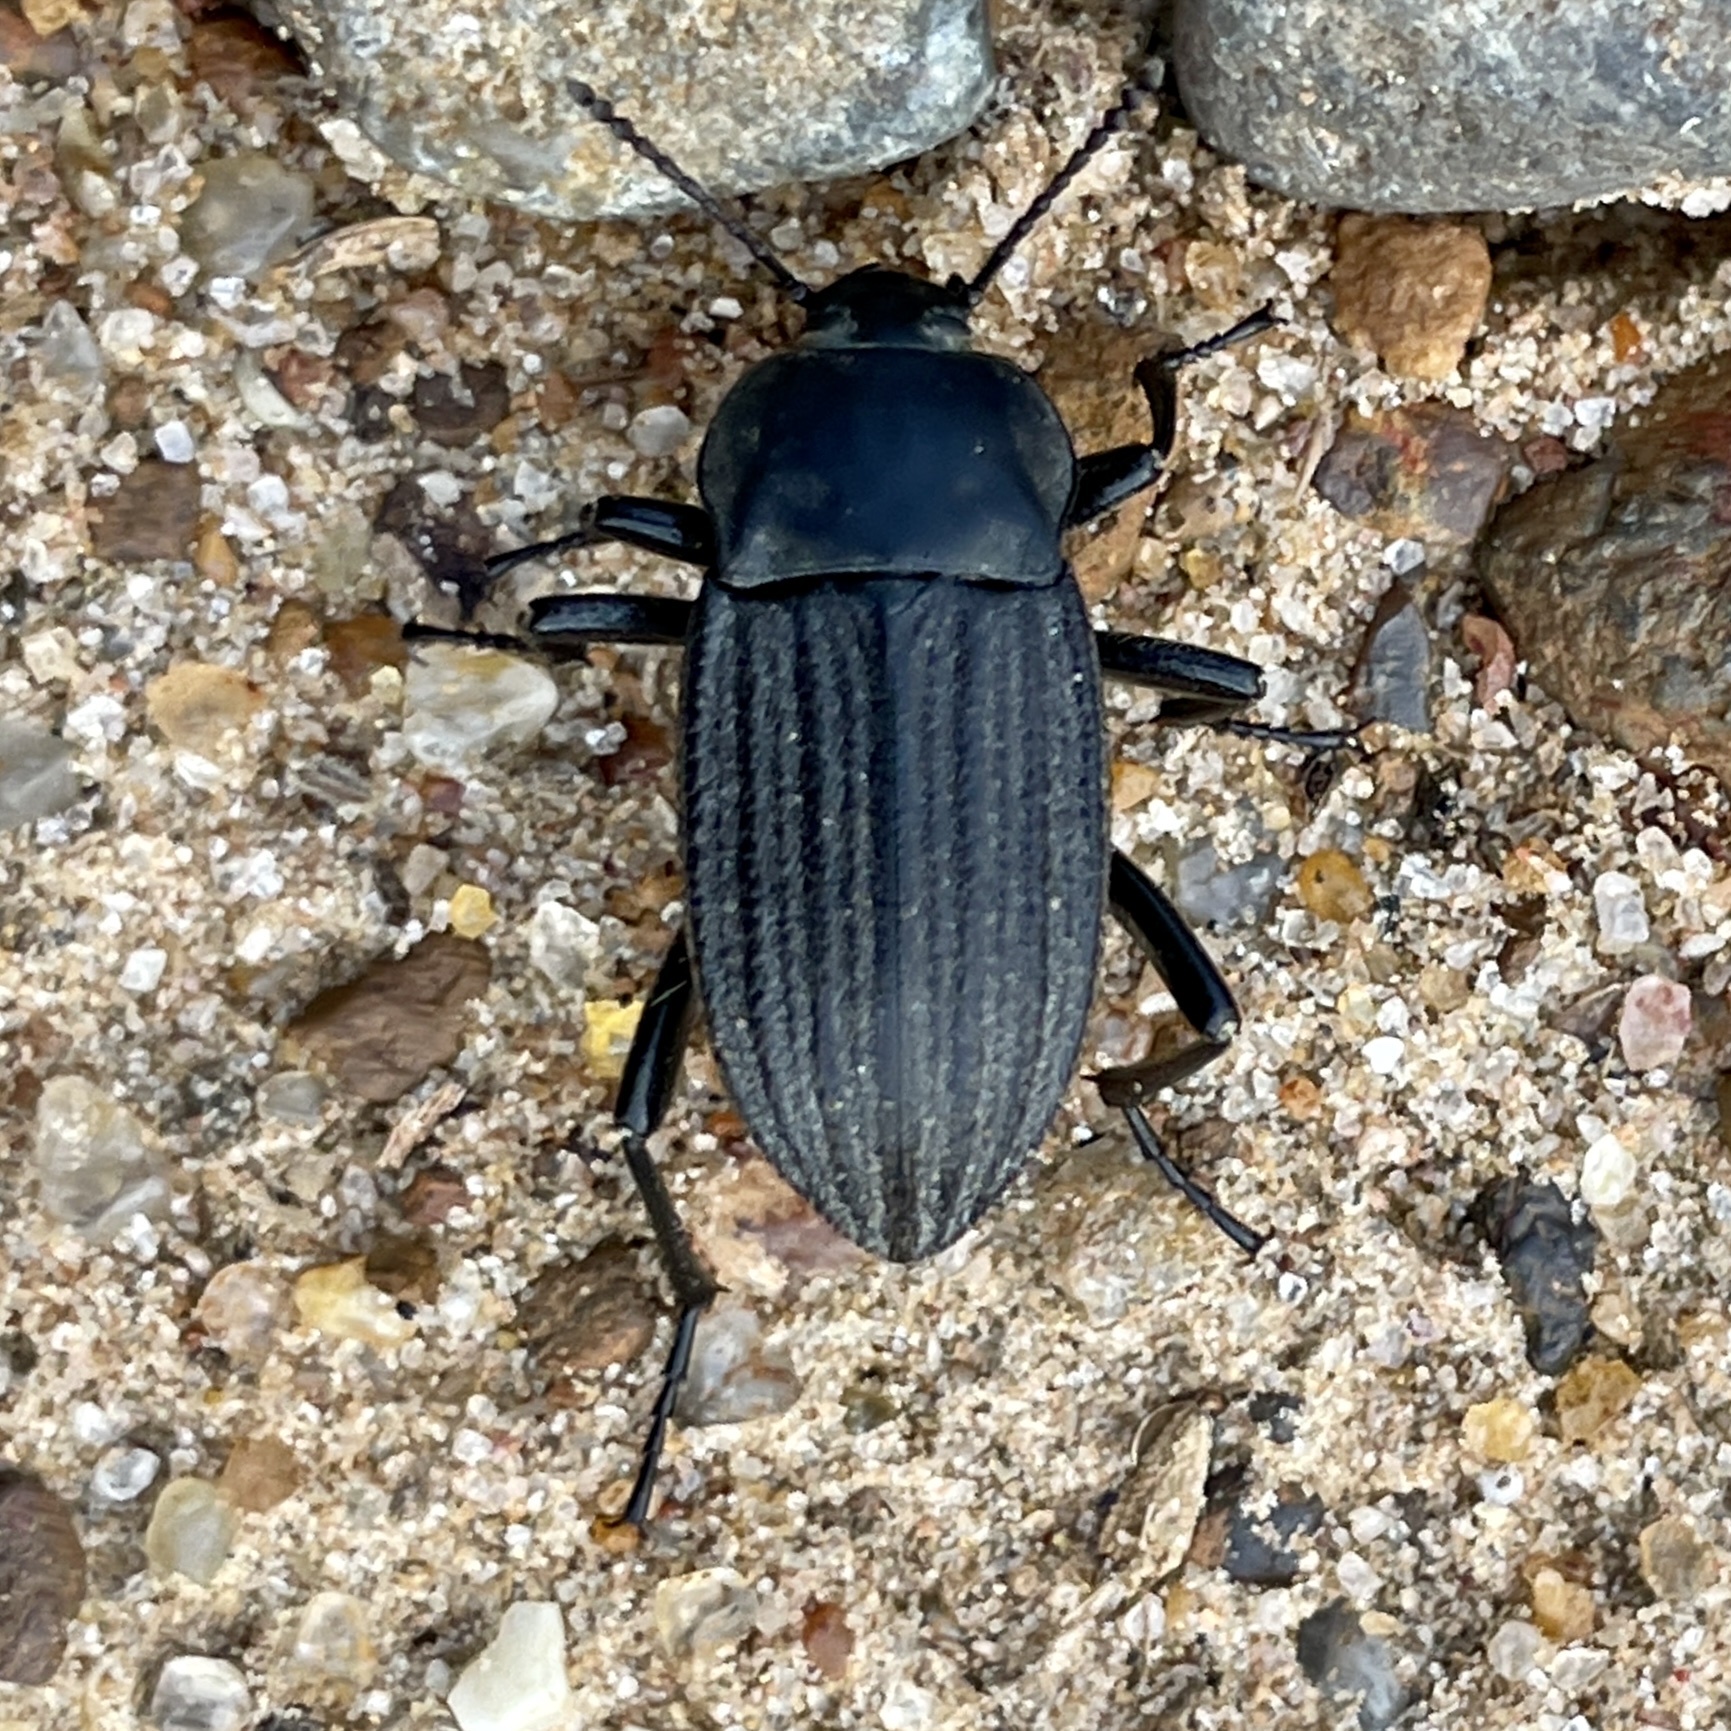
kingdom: Animalia
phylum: Arthropoda
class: Insecta
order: Coleoptera
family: Tenebrionidae
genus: Eleodes
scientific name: Eleodes tricostata
